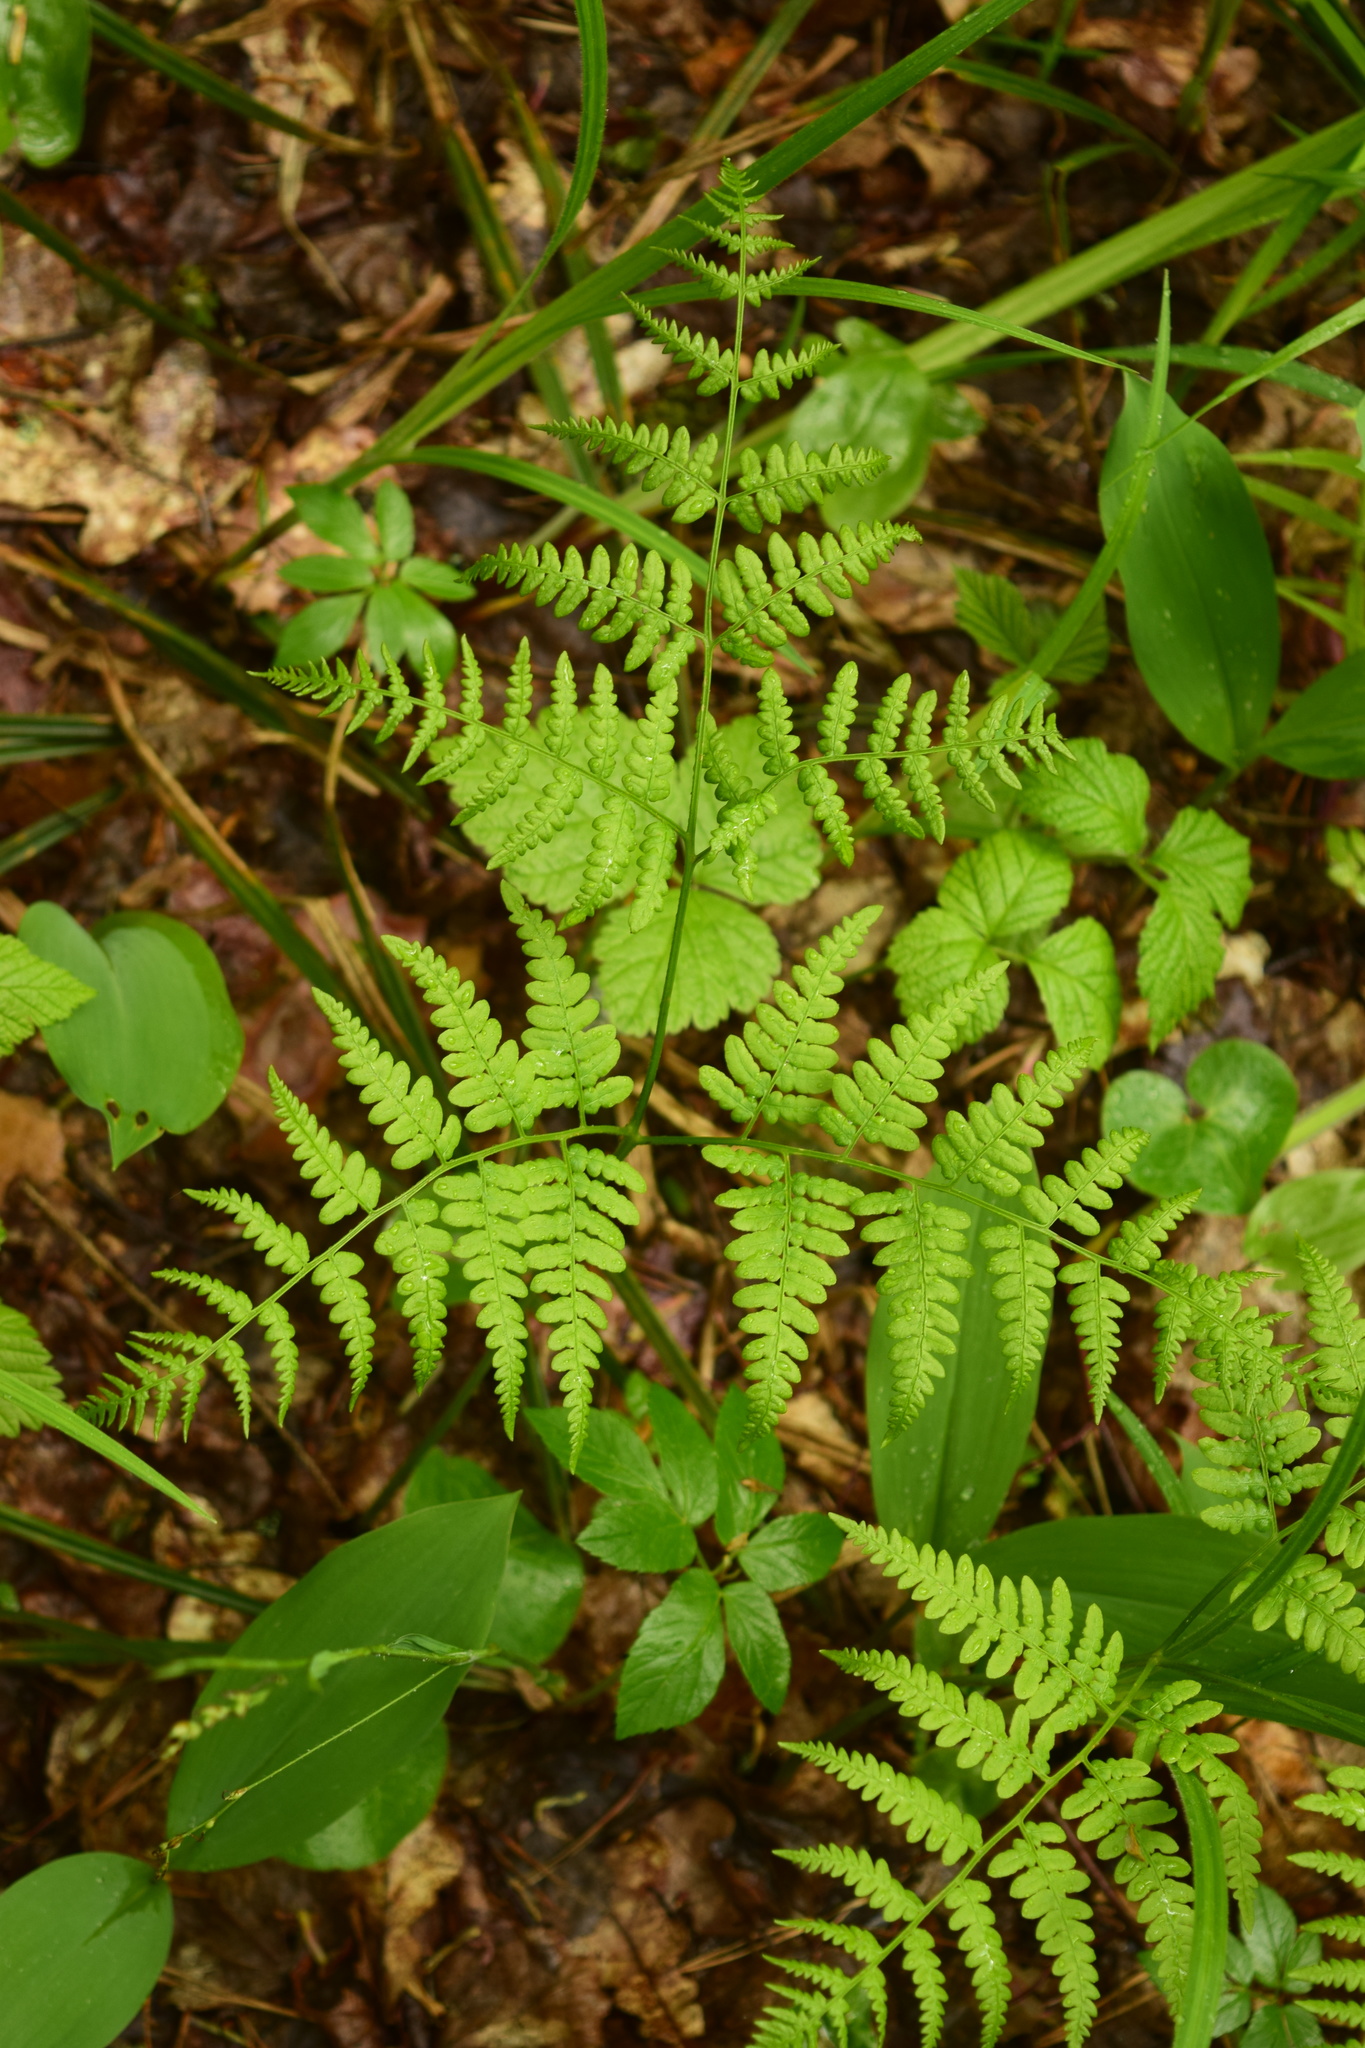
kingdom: Plantae
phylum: Tracheophyta
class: Polypodiopsida
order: Polypodiales
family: Dennstaedtiaceae
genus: Pteridium
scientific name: Pteridium aquilinum
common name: Bracken
